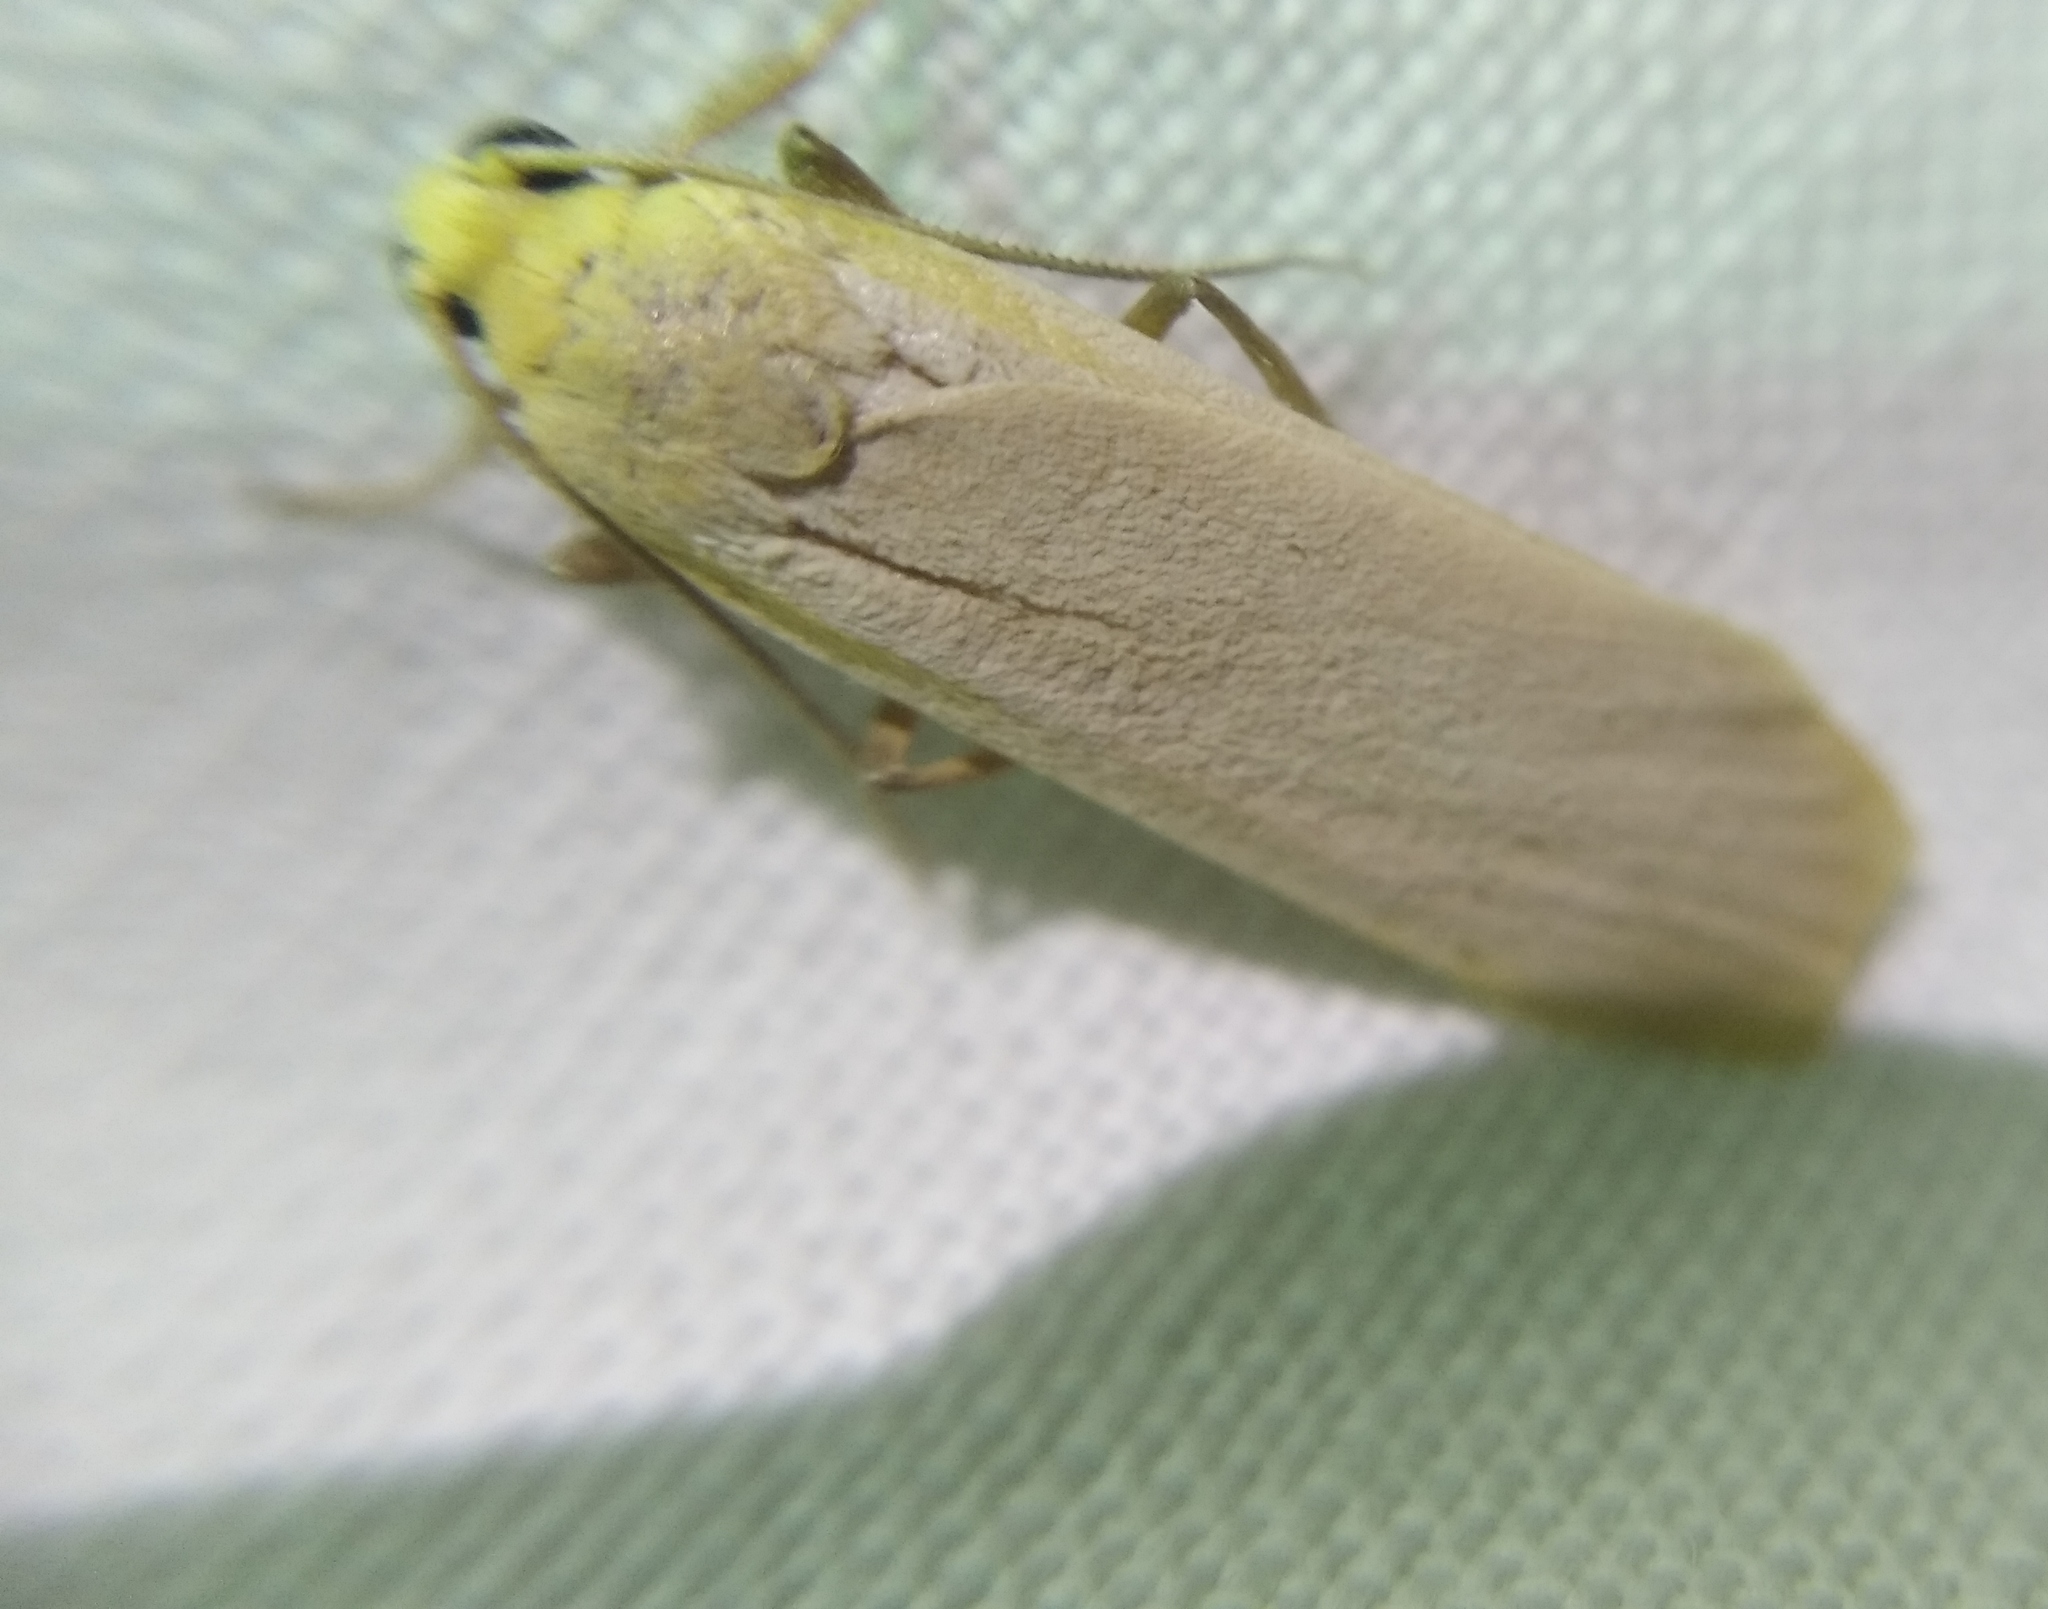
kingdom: Animalia
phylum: Arthropoda
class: Insecta
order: Lepidoptera
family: Erebidae
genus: Katha
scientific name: Katha depressa
